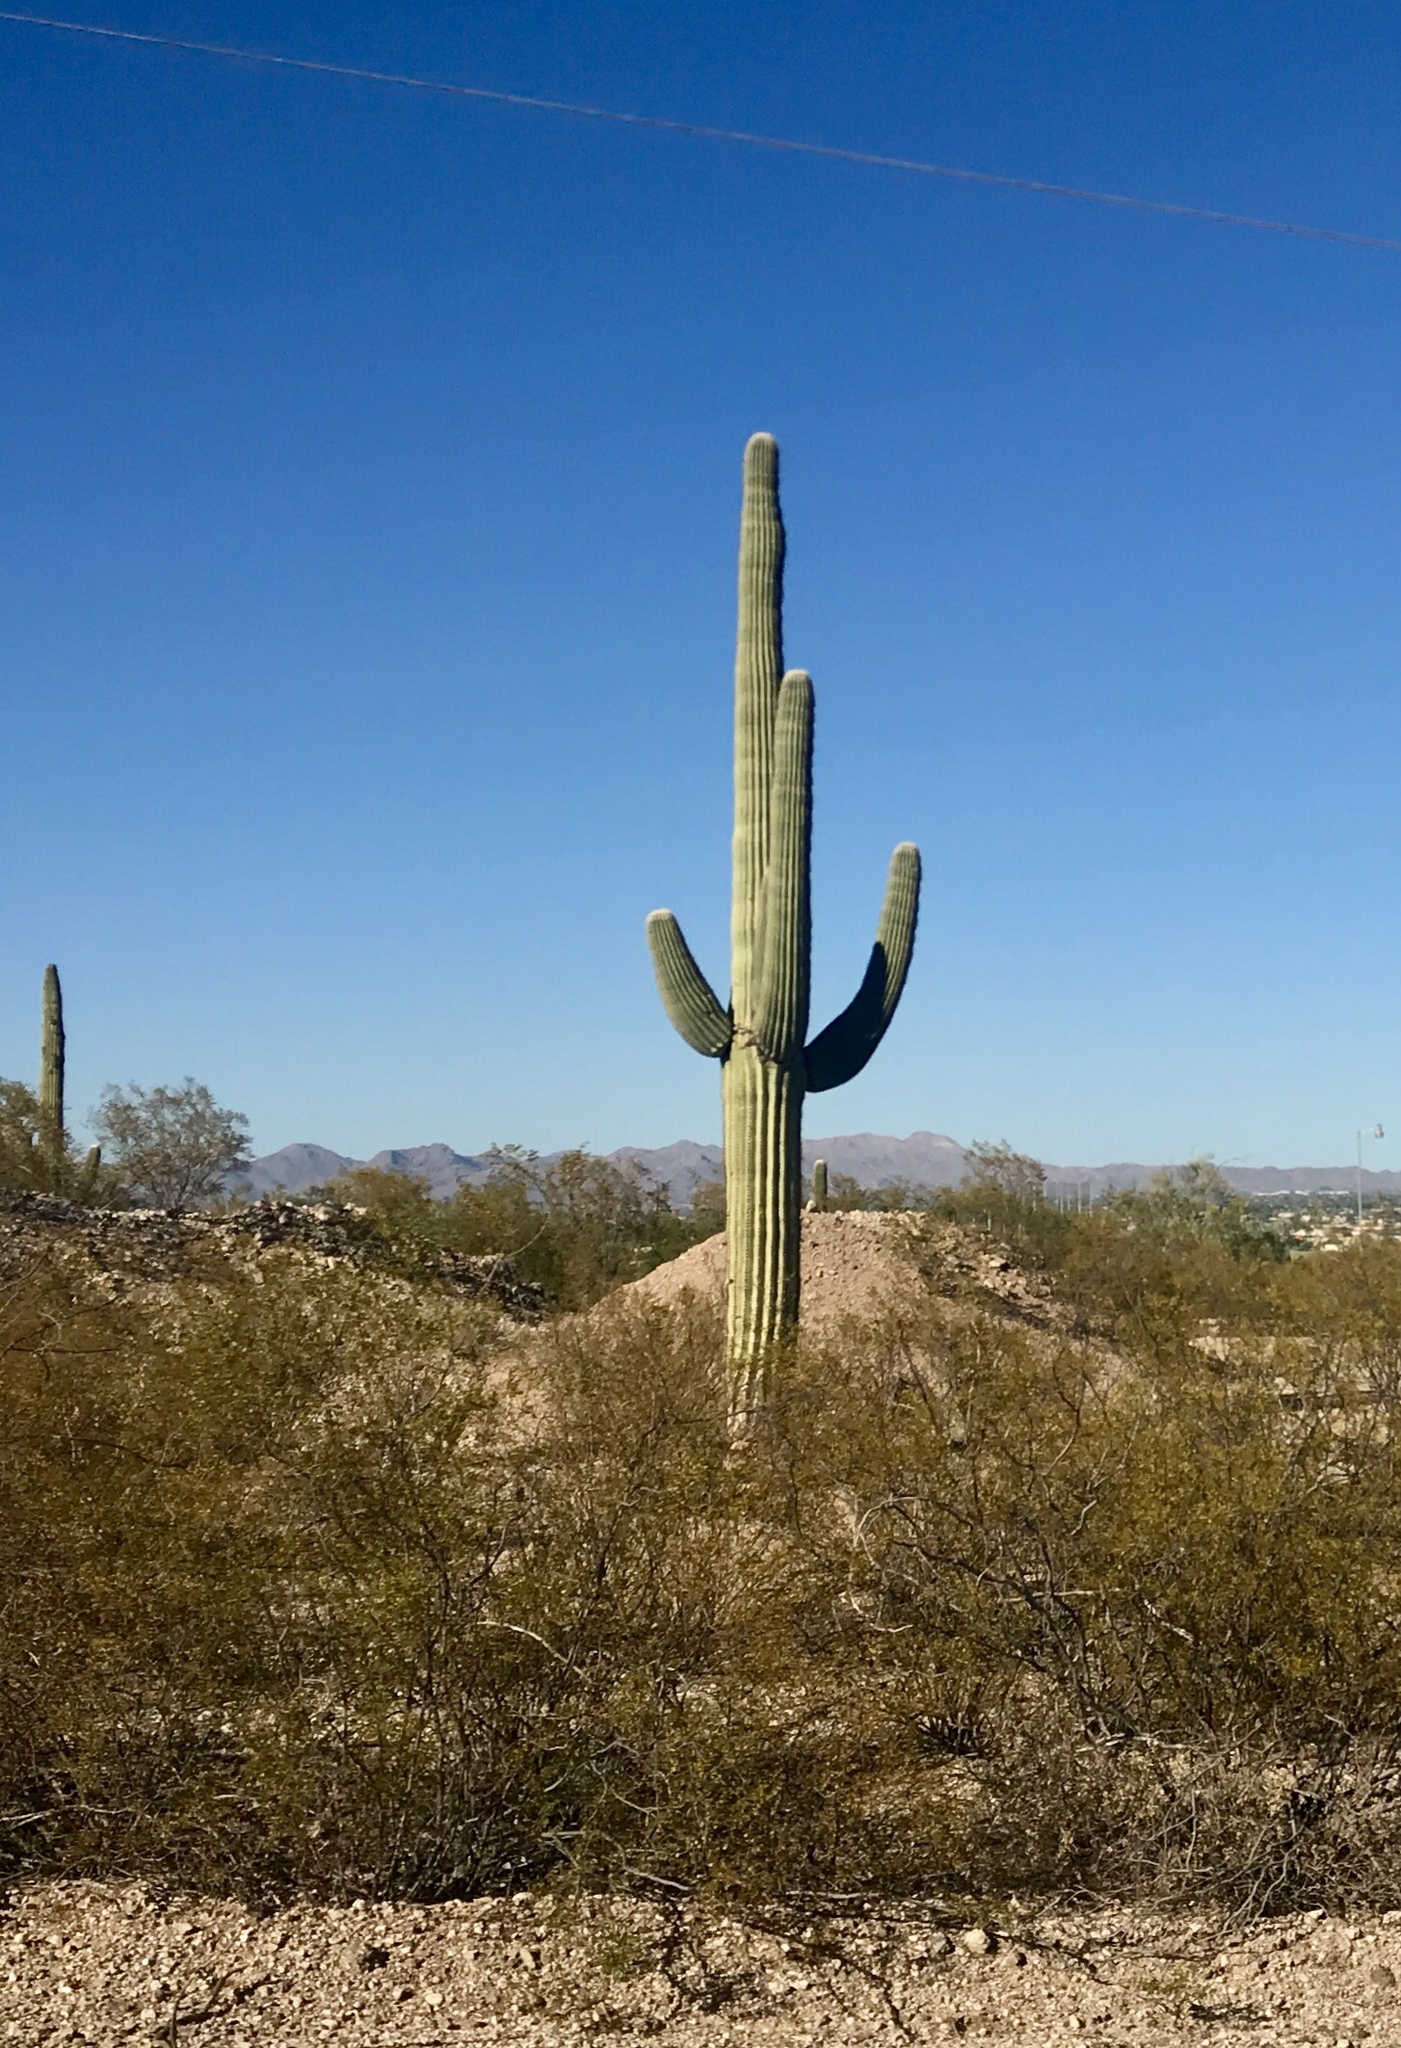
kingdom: Plantae
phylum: Tracheophyta
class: Magnoliopsida
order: Caryophyllales
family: Cactaceae
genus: Carnegiea
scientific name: Carnegiea gigantea
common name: Saguaro
